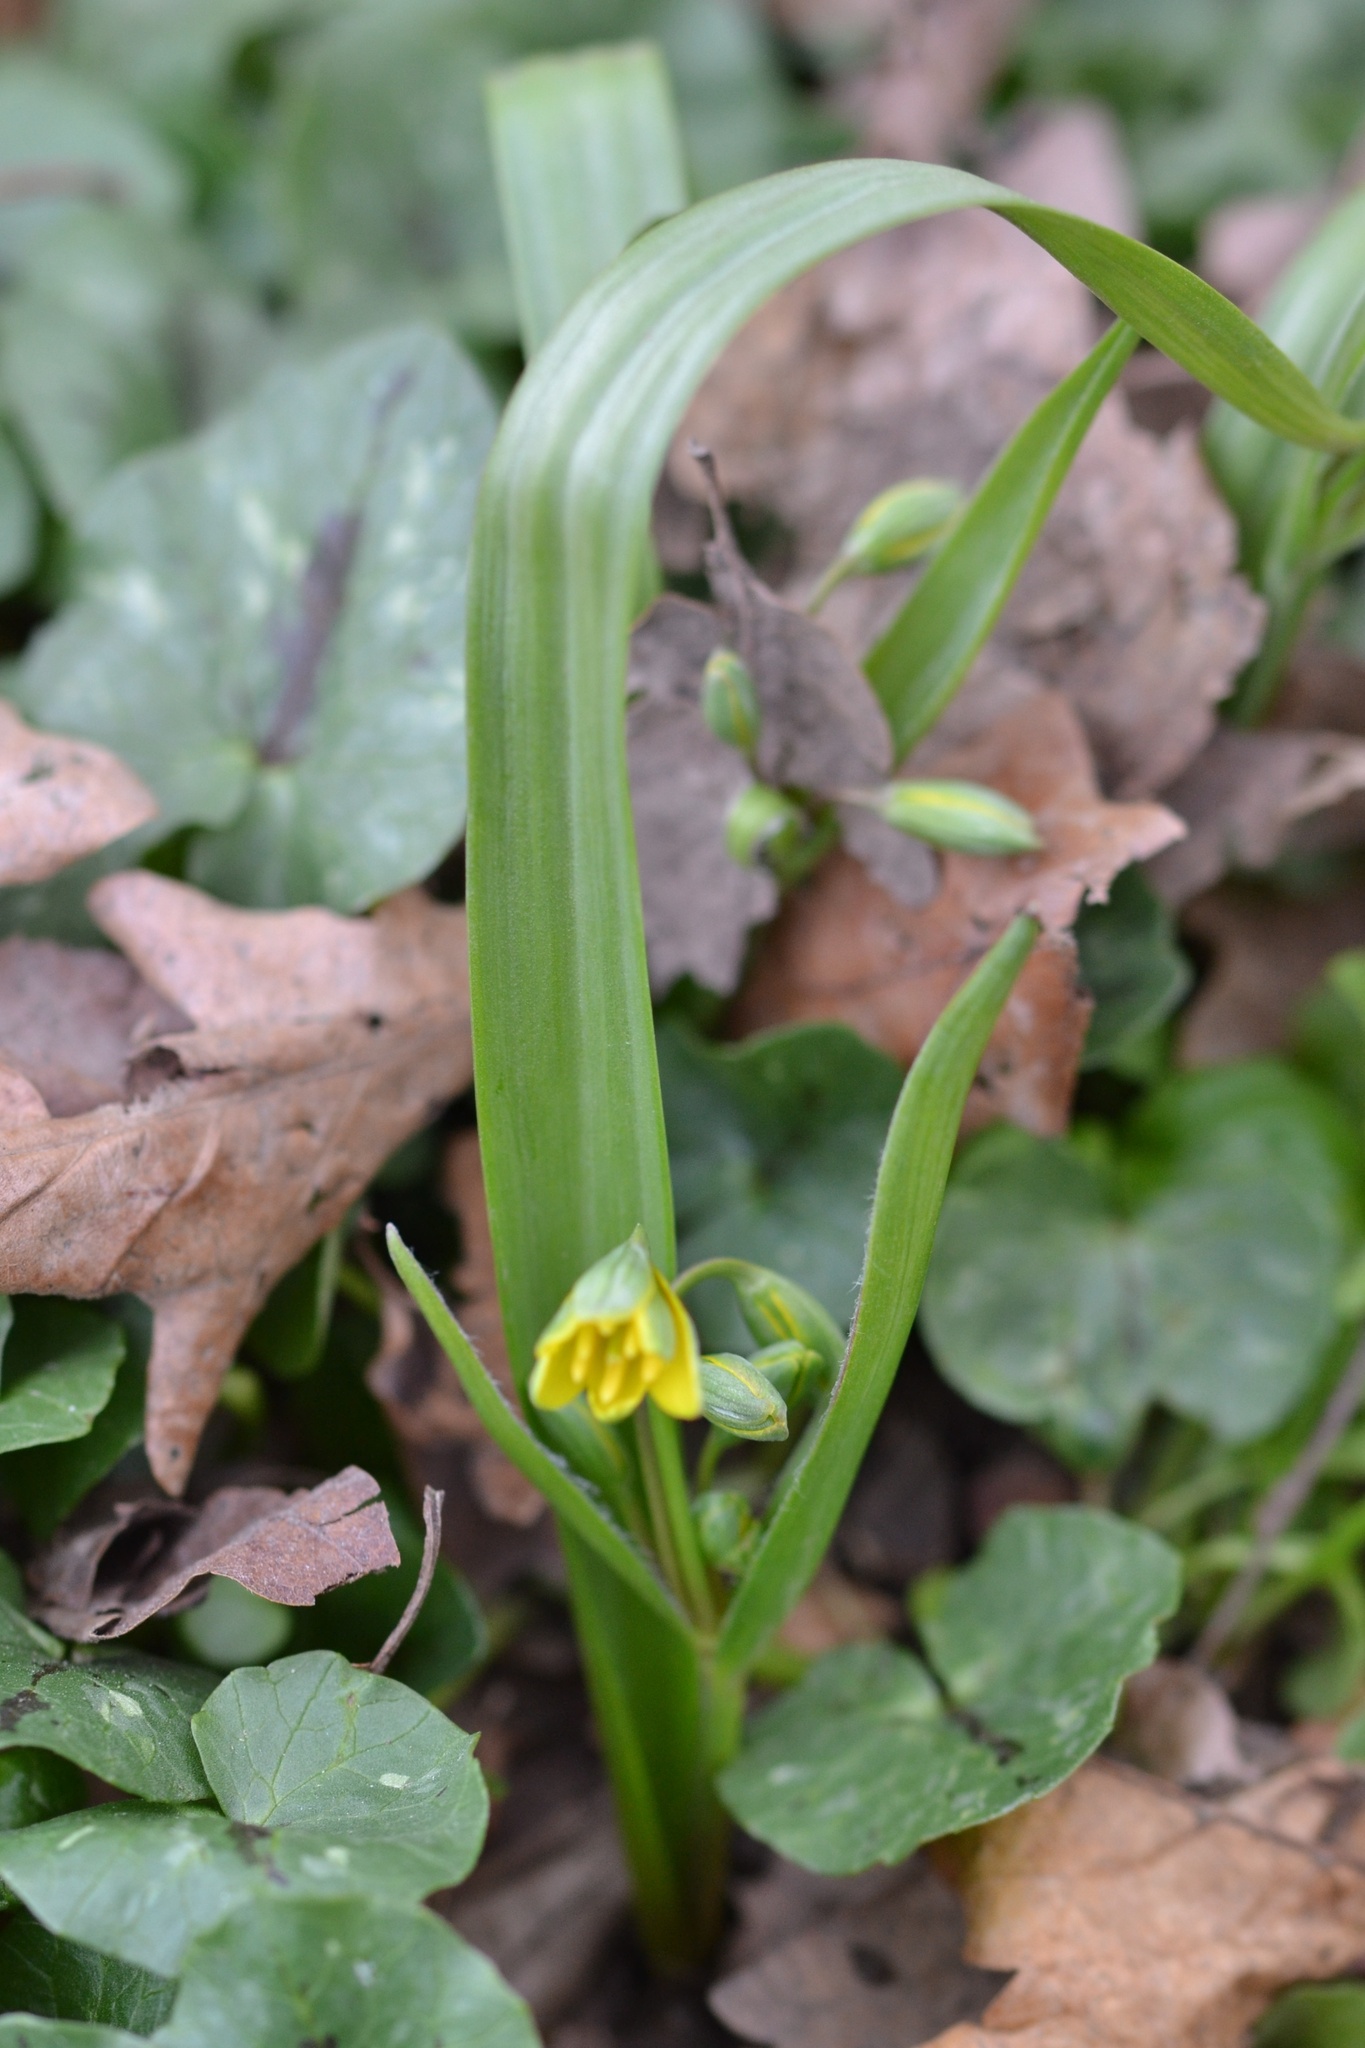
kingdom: Plantae
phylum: Tracheophyta
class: Liliopsida
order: Liliales
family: Liliaceae
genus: Gagea
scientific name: Gagea lutea
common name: Yellow star-of-bethlehem
